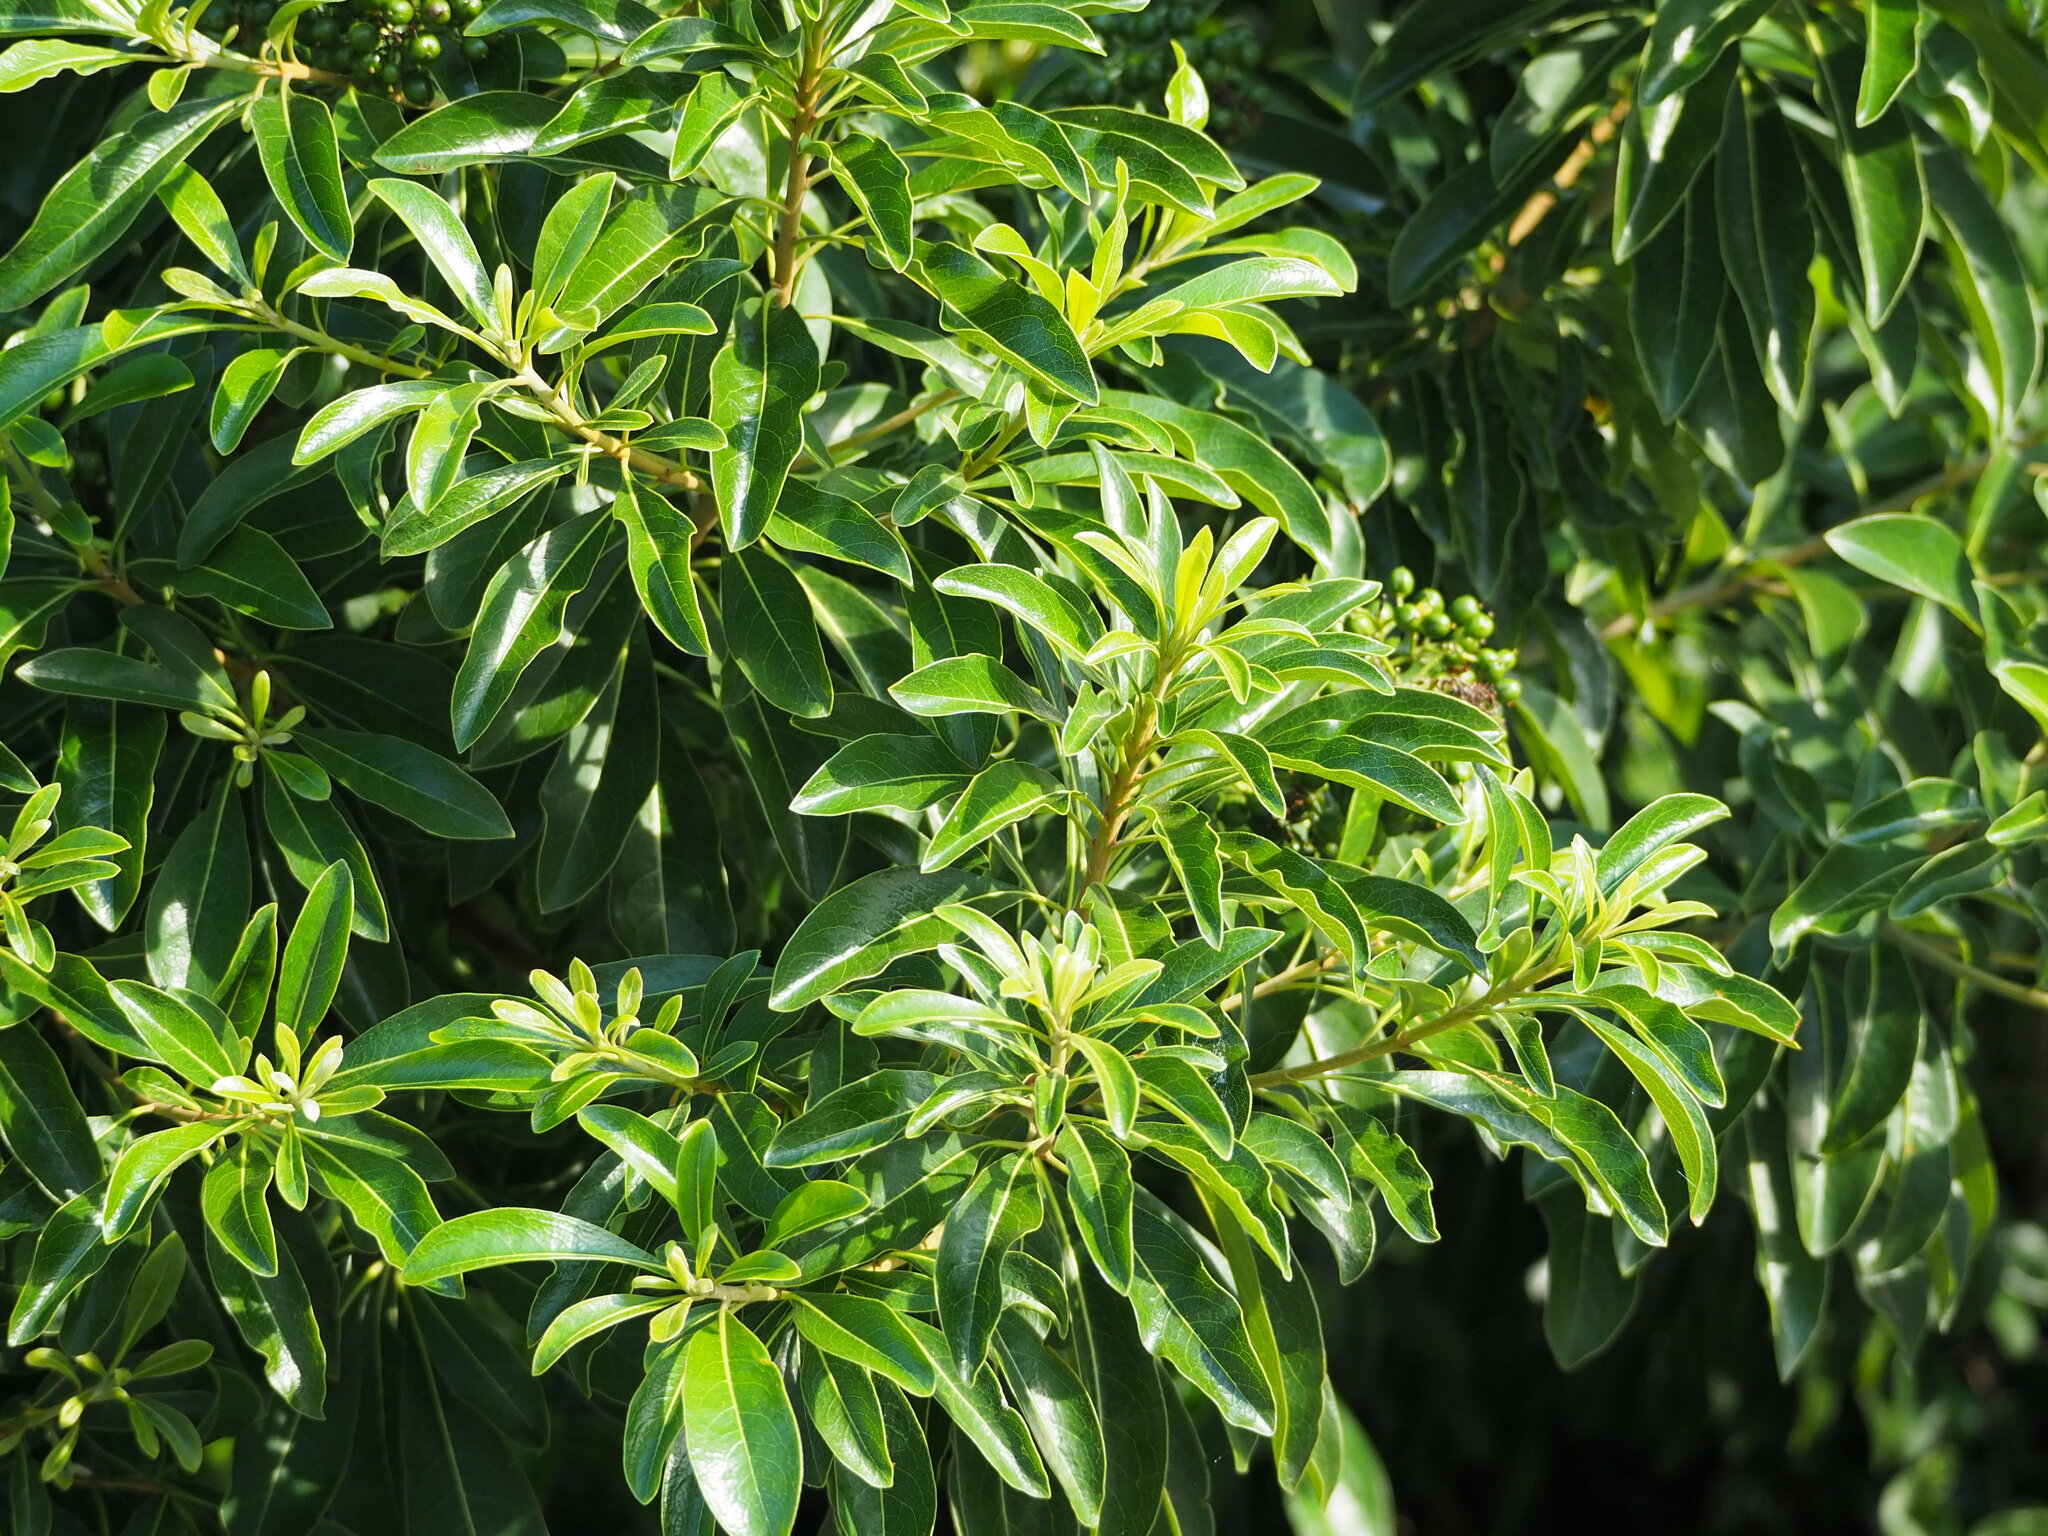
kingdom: Plantae
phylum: Tracheophyta
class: Magnoliopsida
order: Apiales
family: Pittosporaceae
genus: Pittosporum
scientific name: Pittosporum pentandrum
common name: Taiwanese cheesewood
